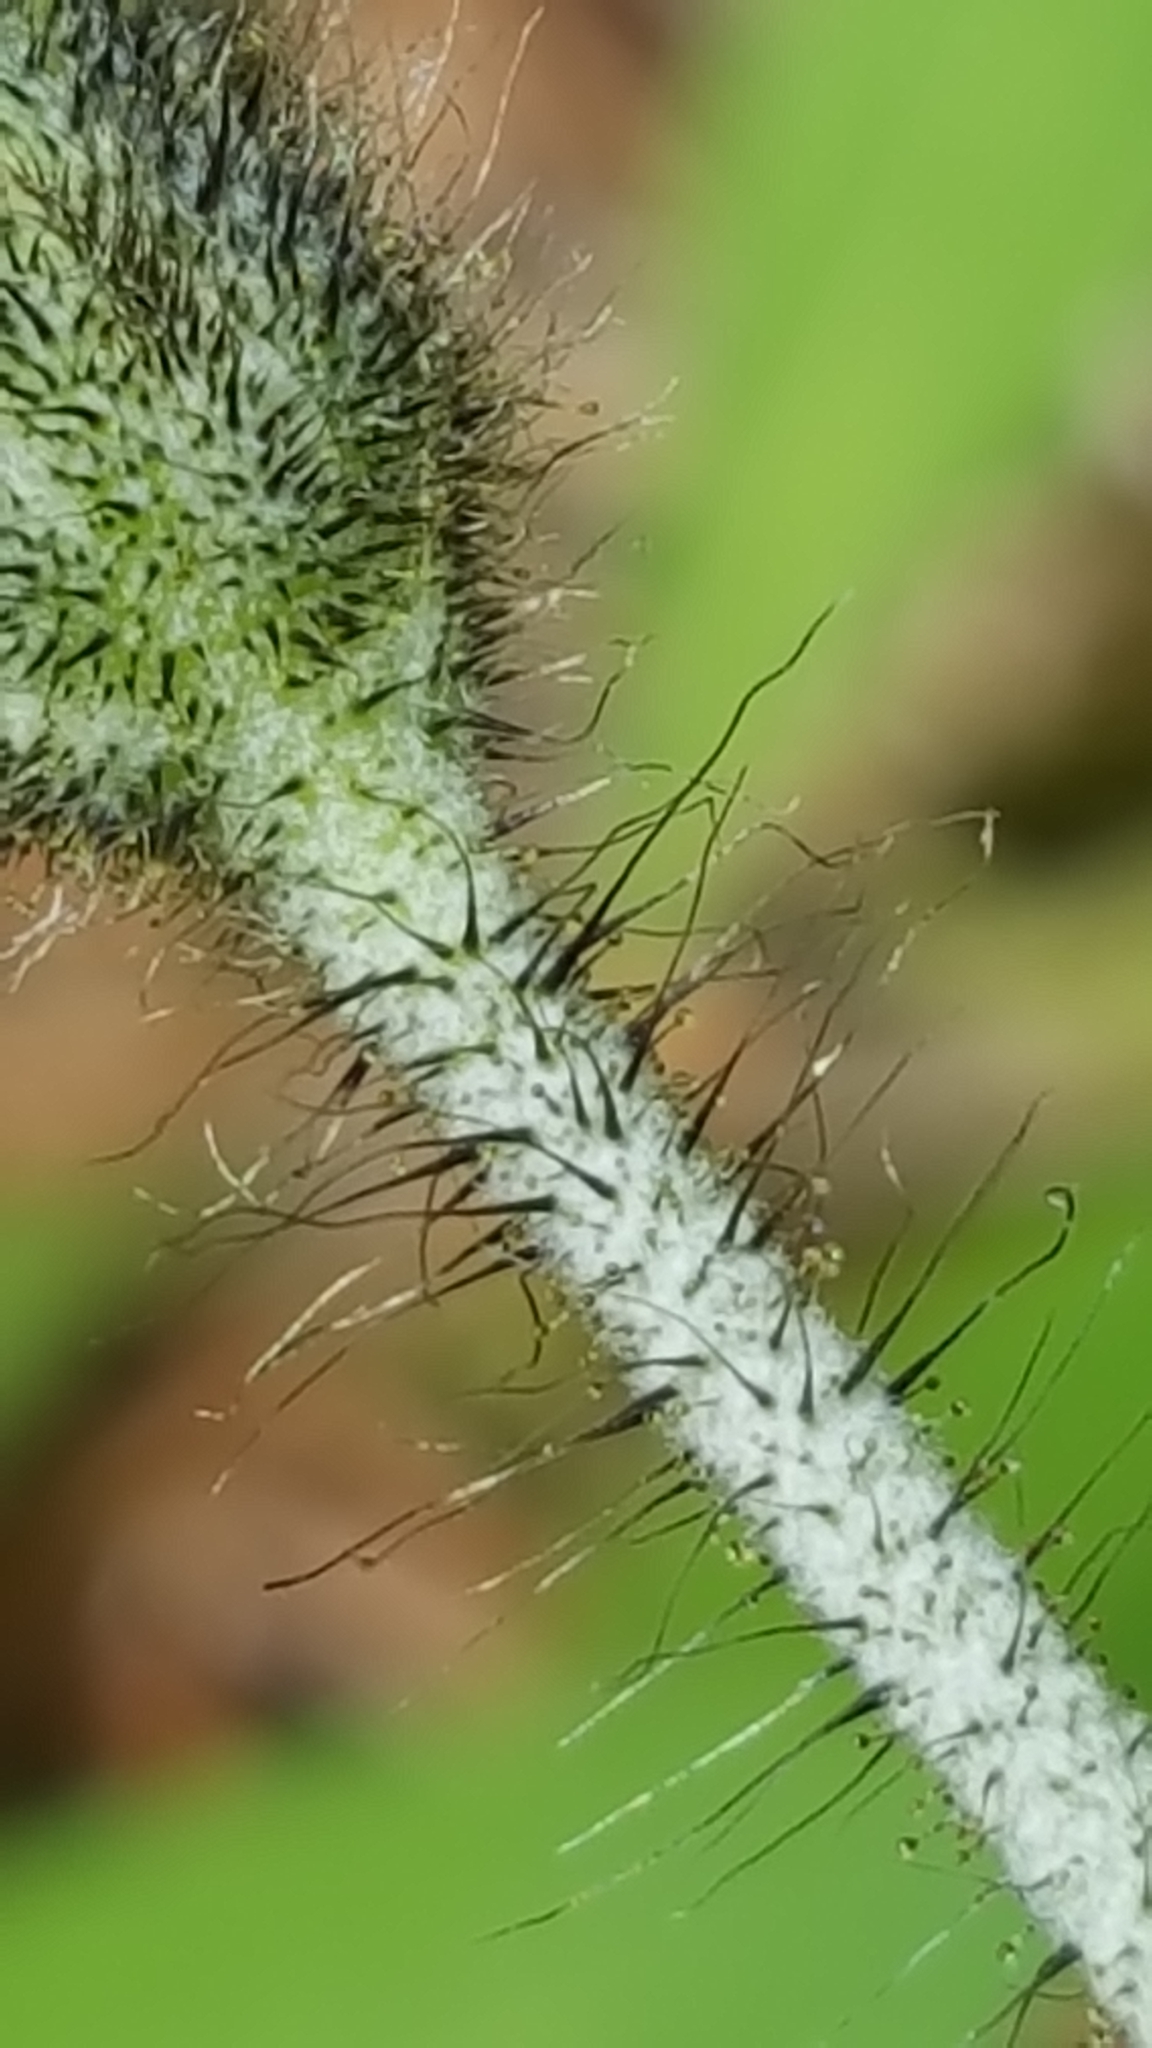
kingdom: Plantae
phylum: Tracheophyta
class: Magnoliopsida
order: Asterales
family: Asteraceae
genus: Pilosella
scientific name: Pilosella officinarum
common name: Mouse-ear hawkweed
